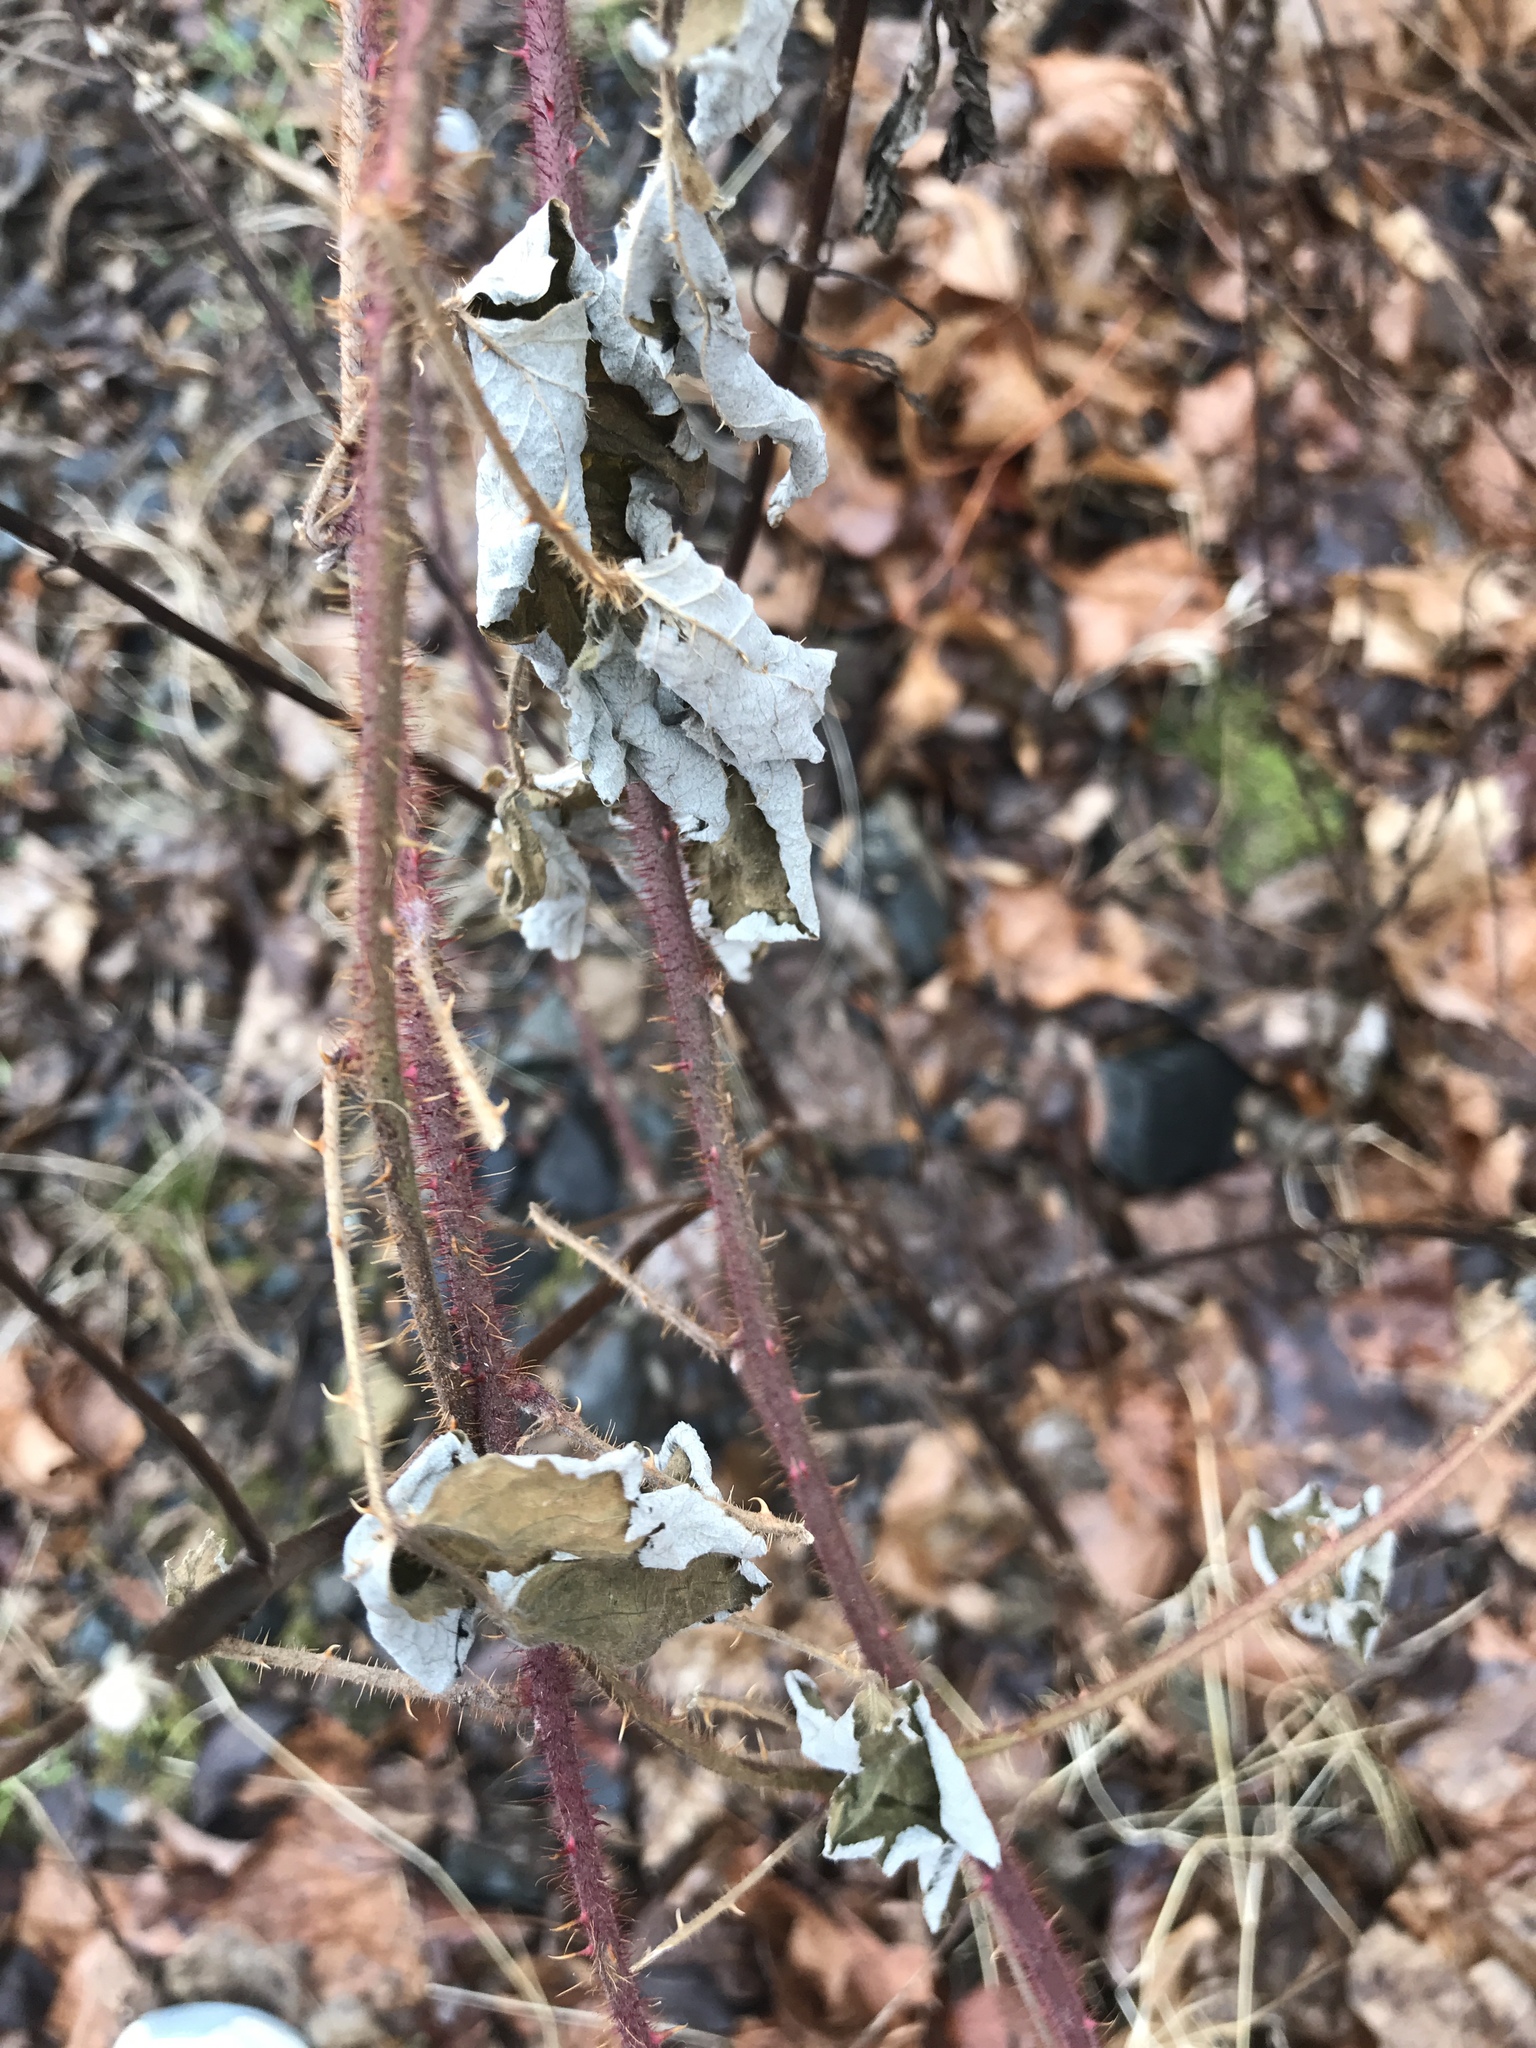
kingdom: Plantae
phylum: Tracheophyta
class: Magnoliopsida
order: Rosales
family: Rosaceae
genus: Rubus
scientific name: Rubus phoenicolasius
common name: Japanese wineberry
